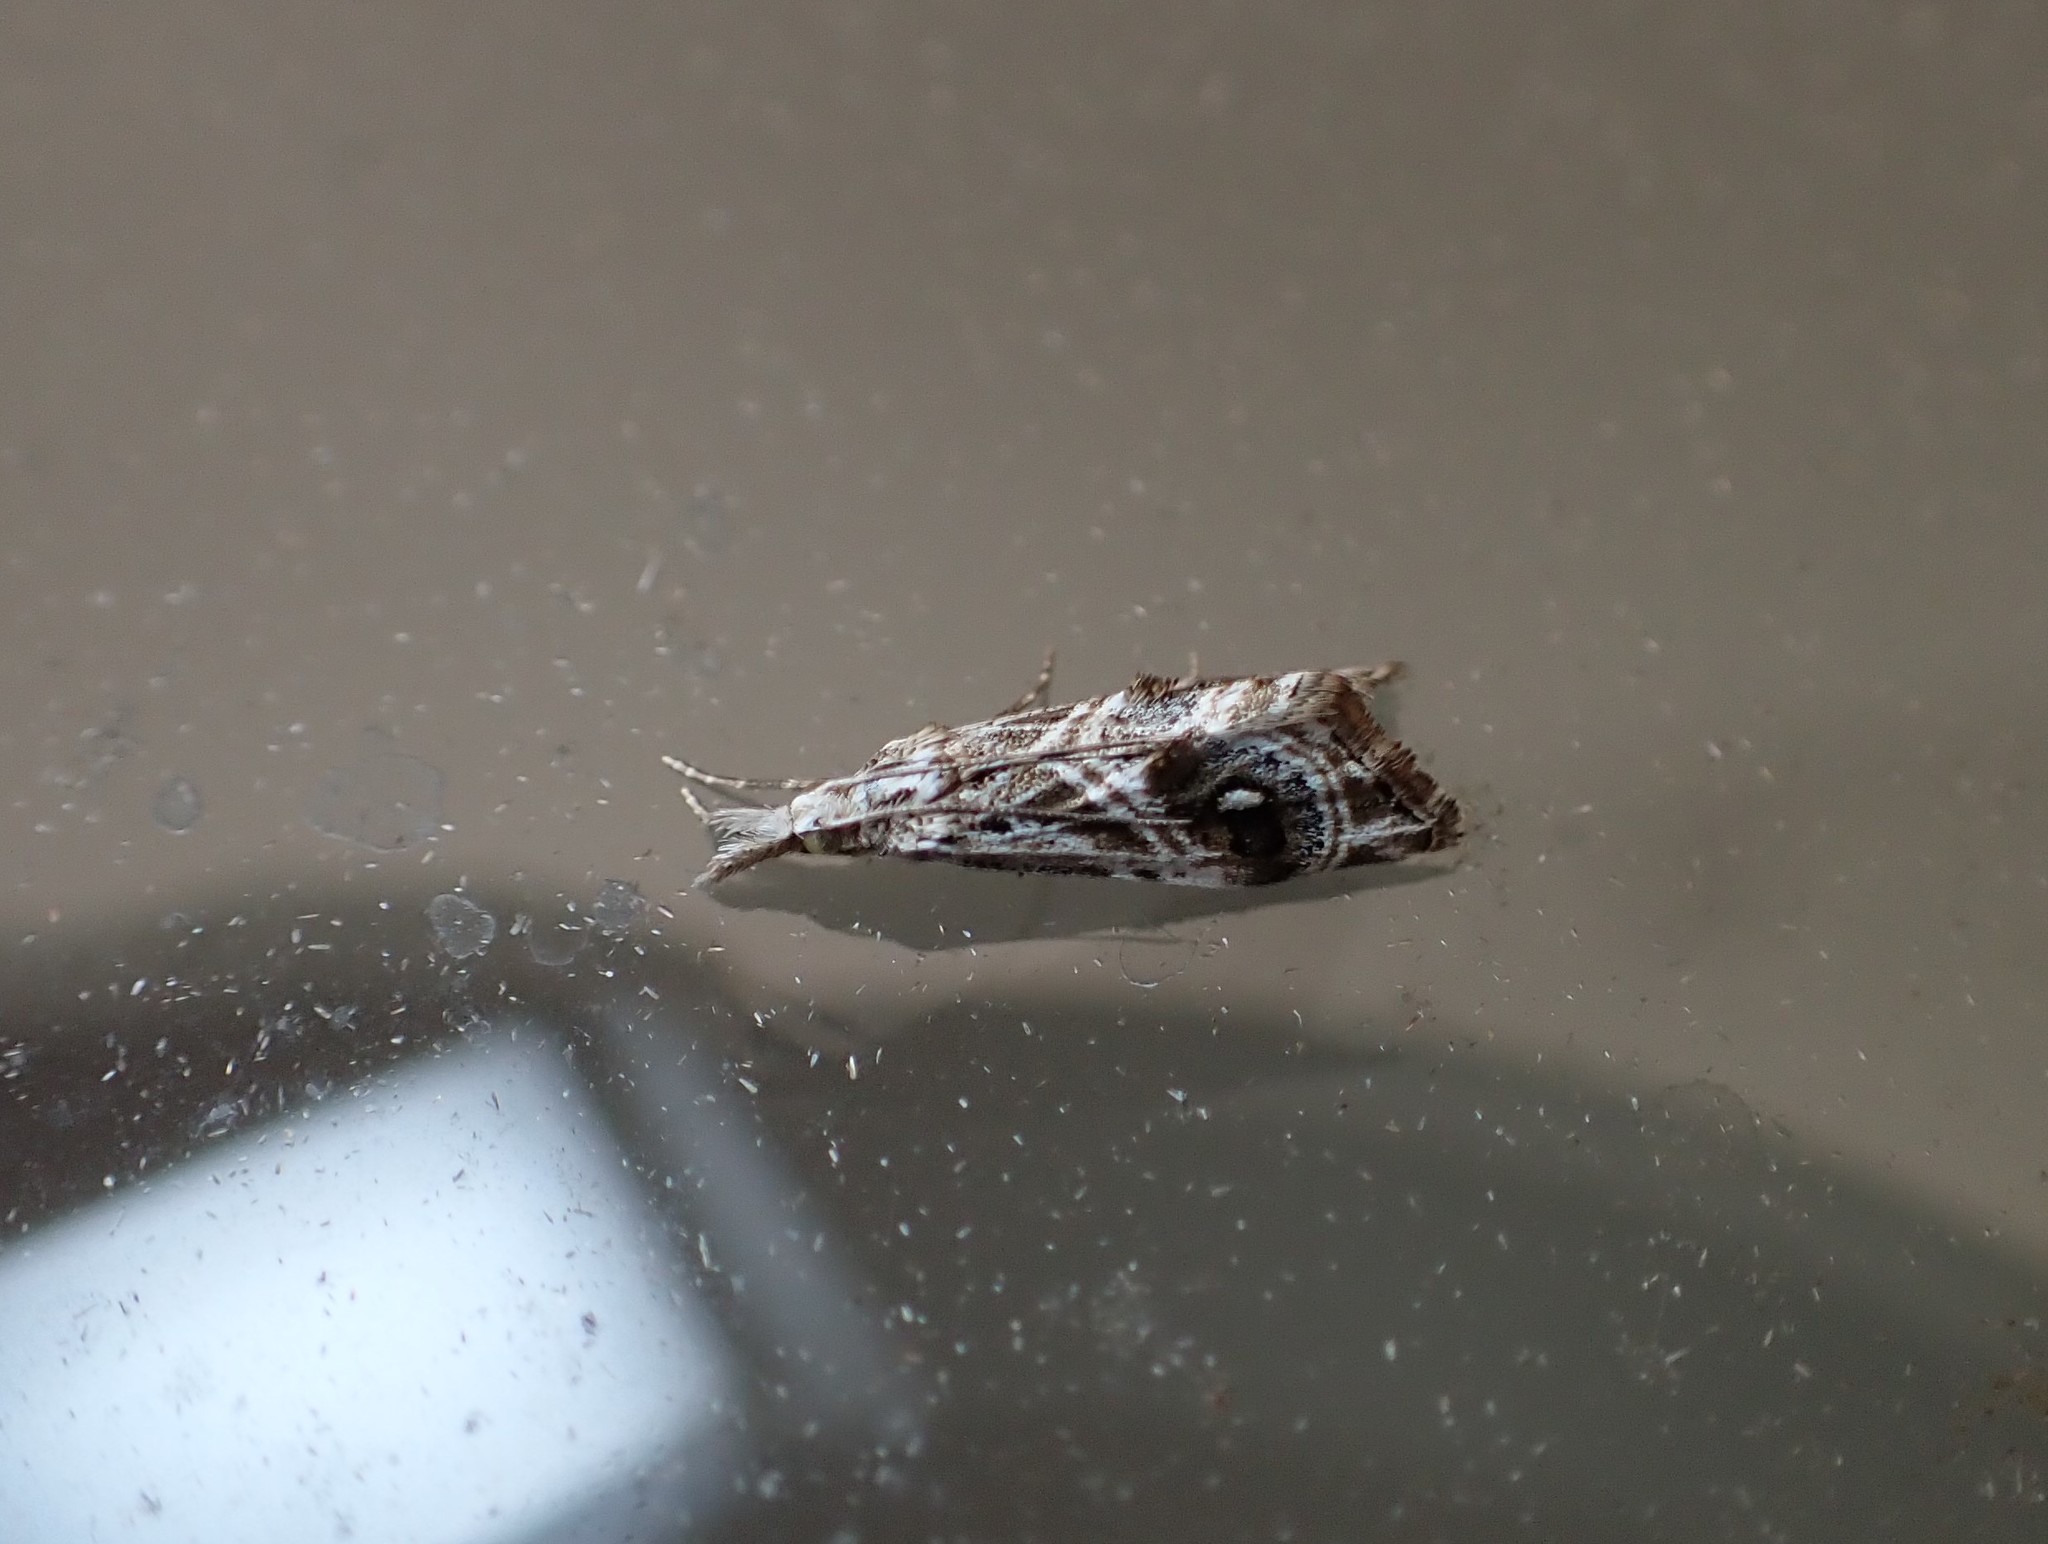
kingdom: Animalia
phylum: Arthropoda
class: Insecta
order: Lepidoptera
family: Crambidae
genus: Gadira
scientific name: Gadira acerella
